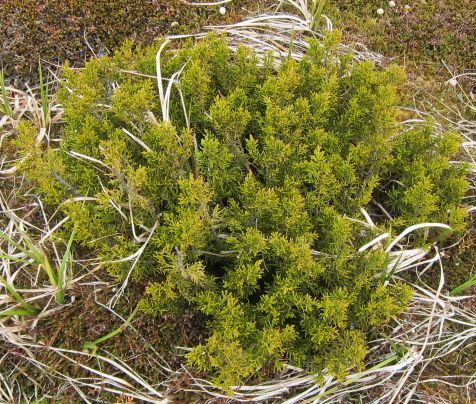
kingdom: Plantae
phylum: Tracheophyta
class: Pinopsida
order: Pinales
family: Podocarpaceae
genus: Halocarpus
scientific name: Halocarpus bidwillii
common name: Bog pine
